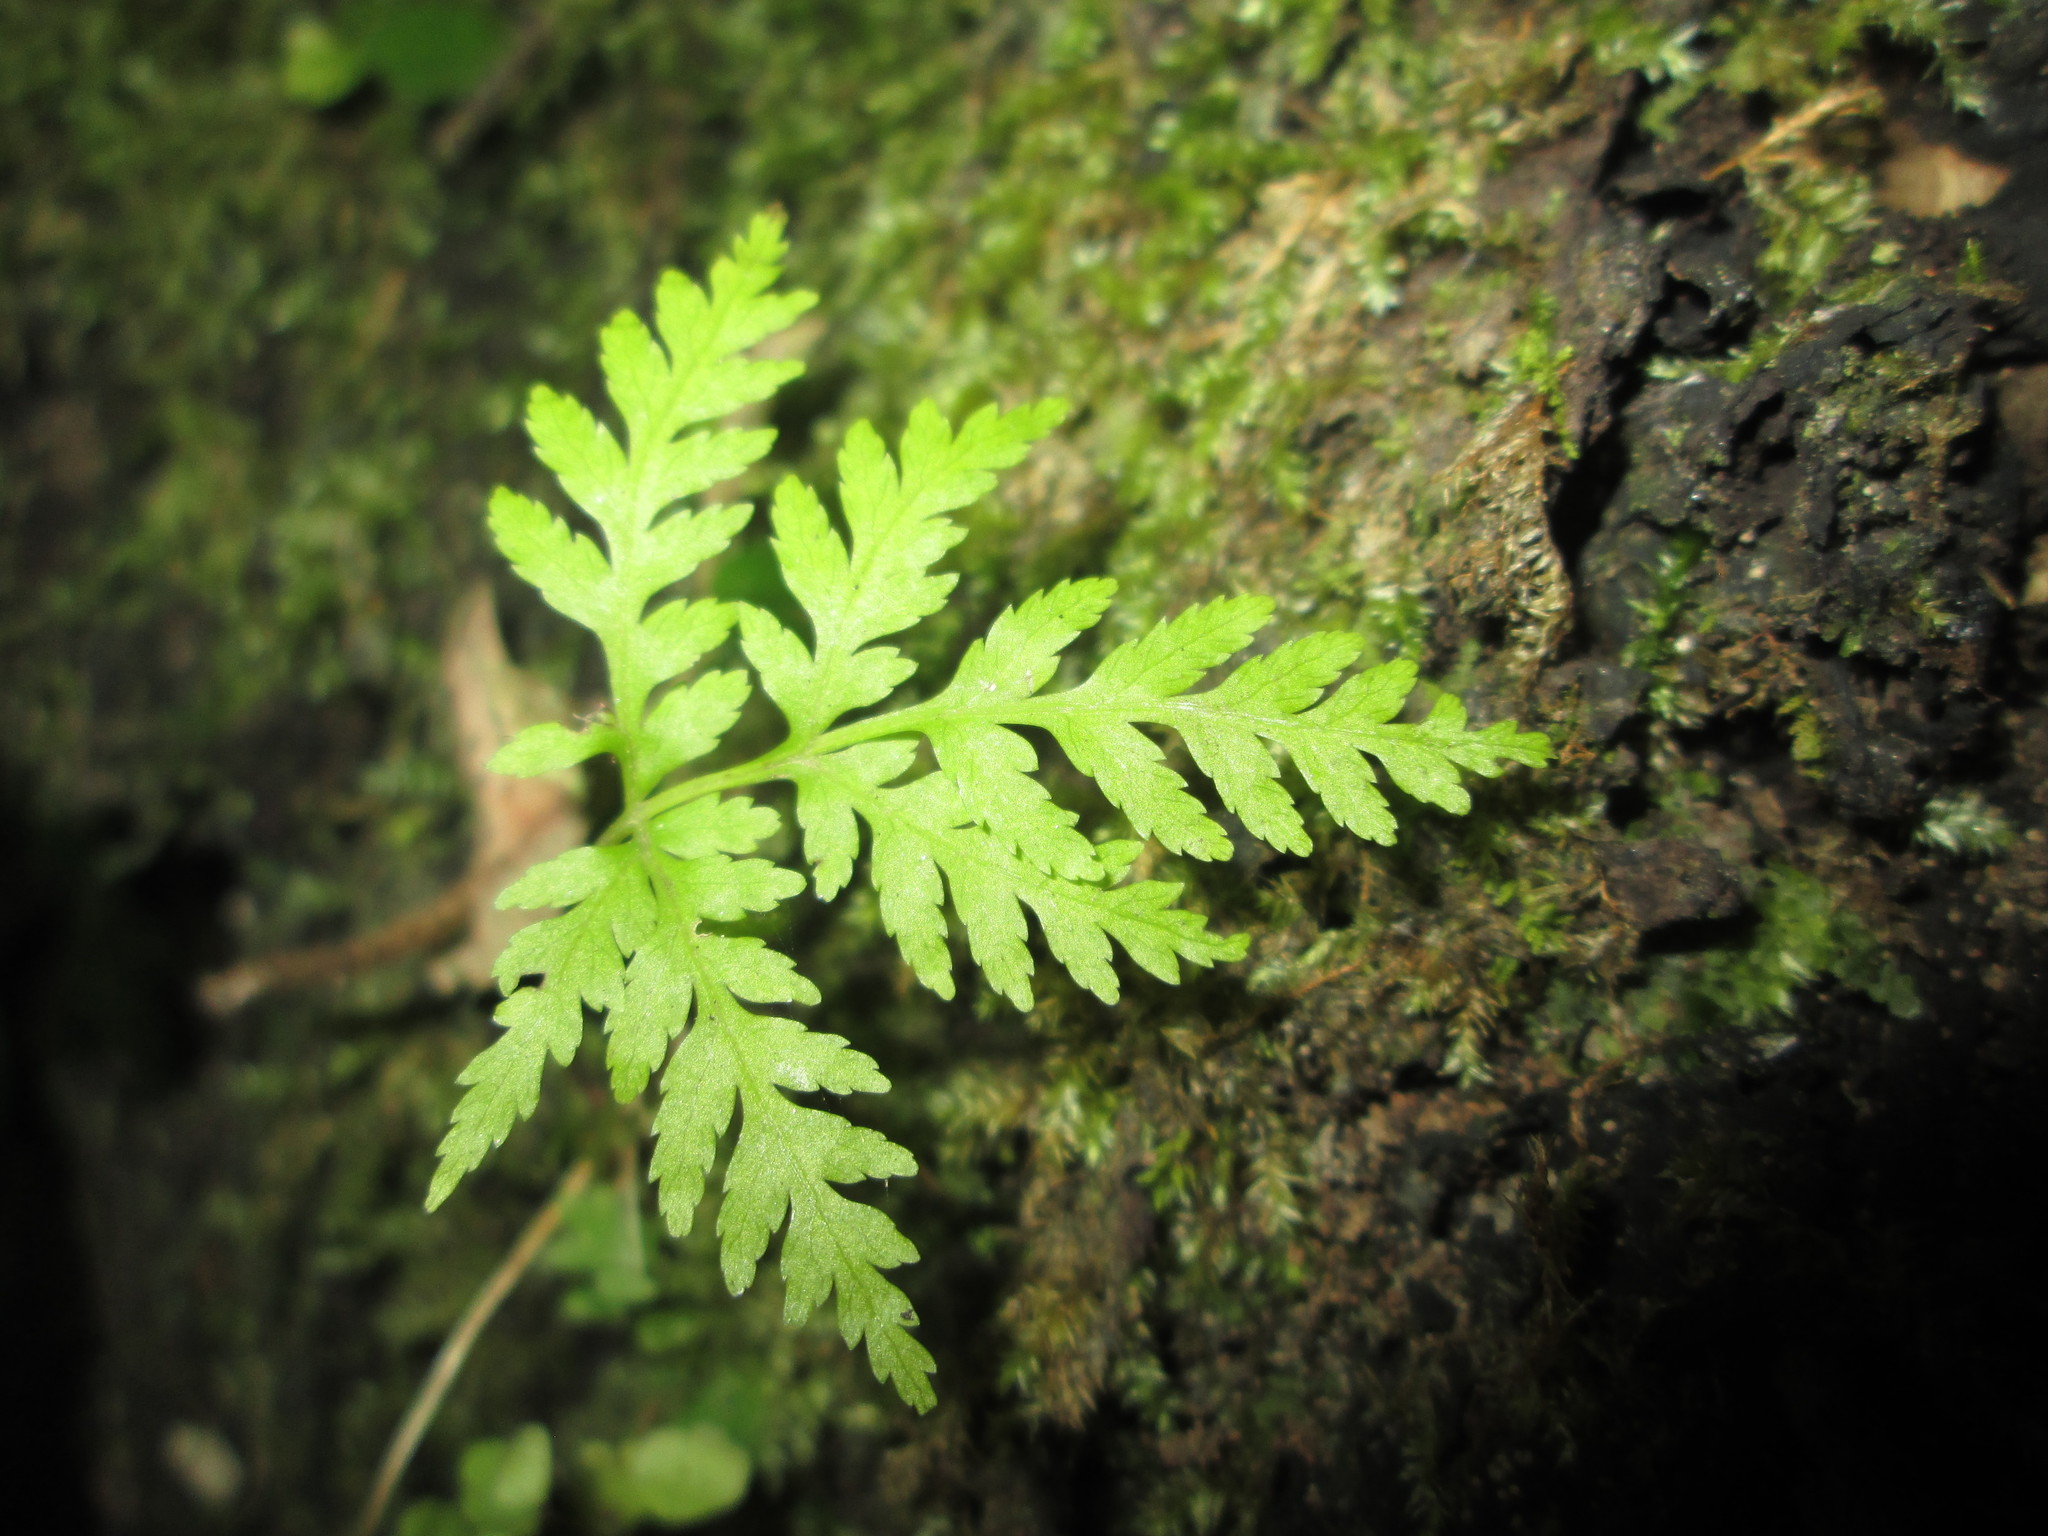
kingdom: Plantae
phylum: Tracheophyta
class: Polypodiopsida
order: Polypodiales
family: Dryopteridaceae
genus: Rumohra
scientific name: Rumohra adiantiformis
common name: Leather fern
